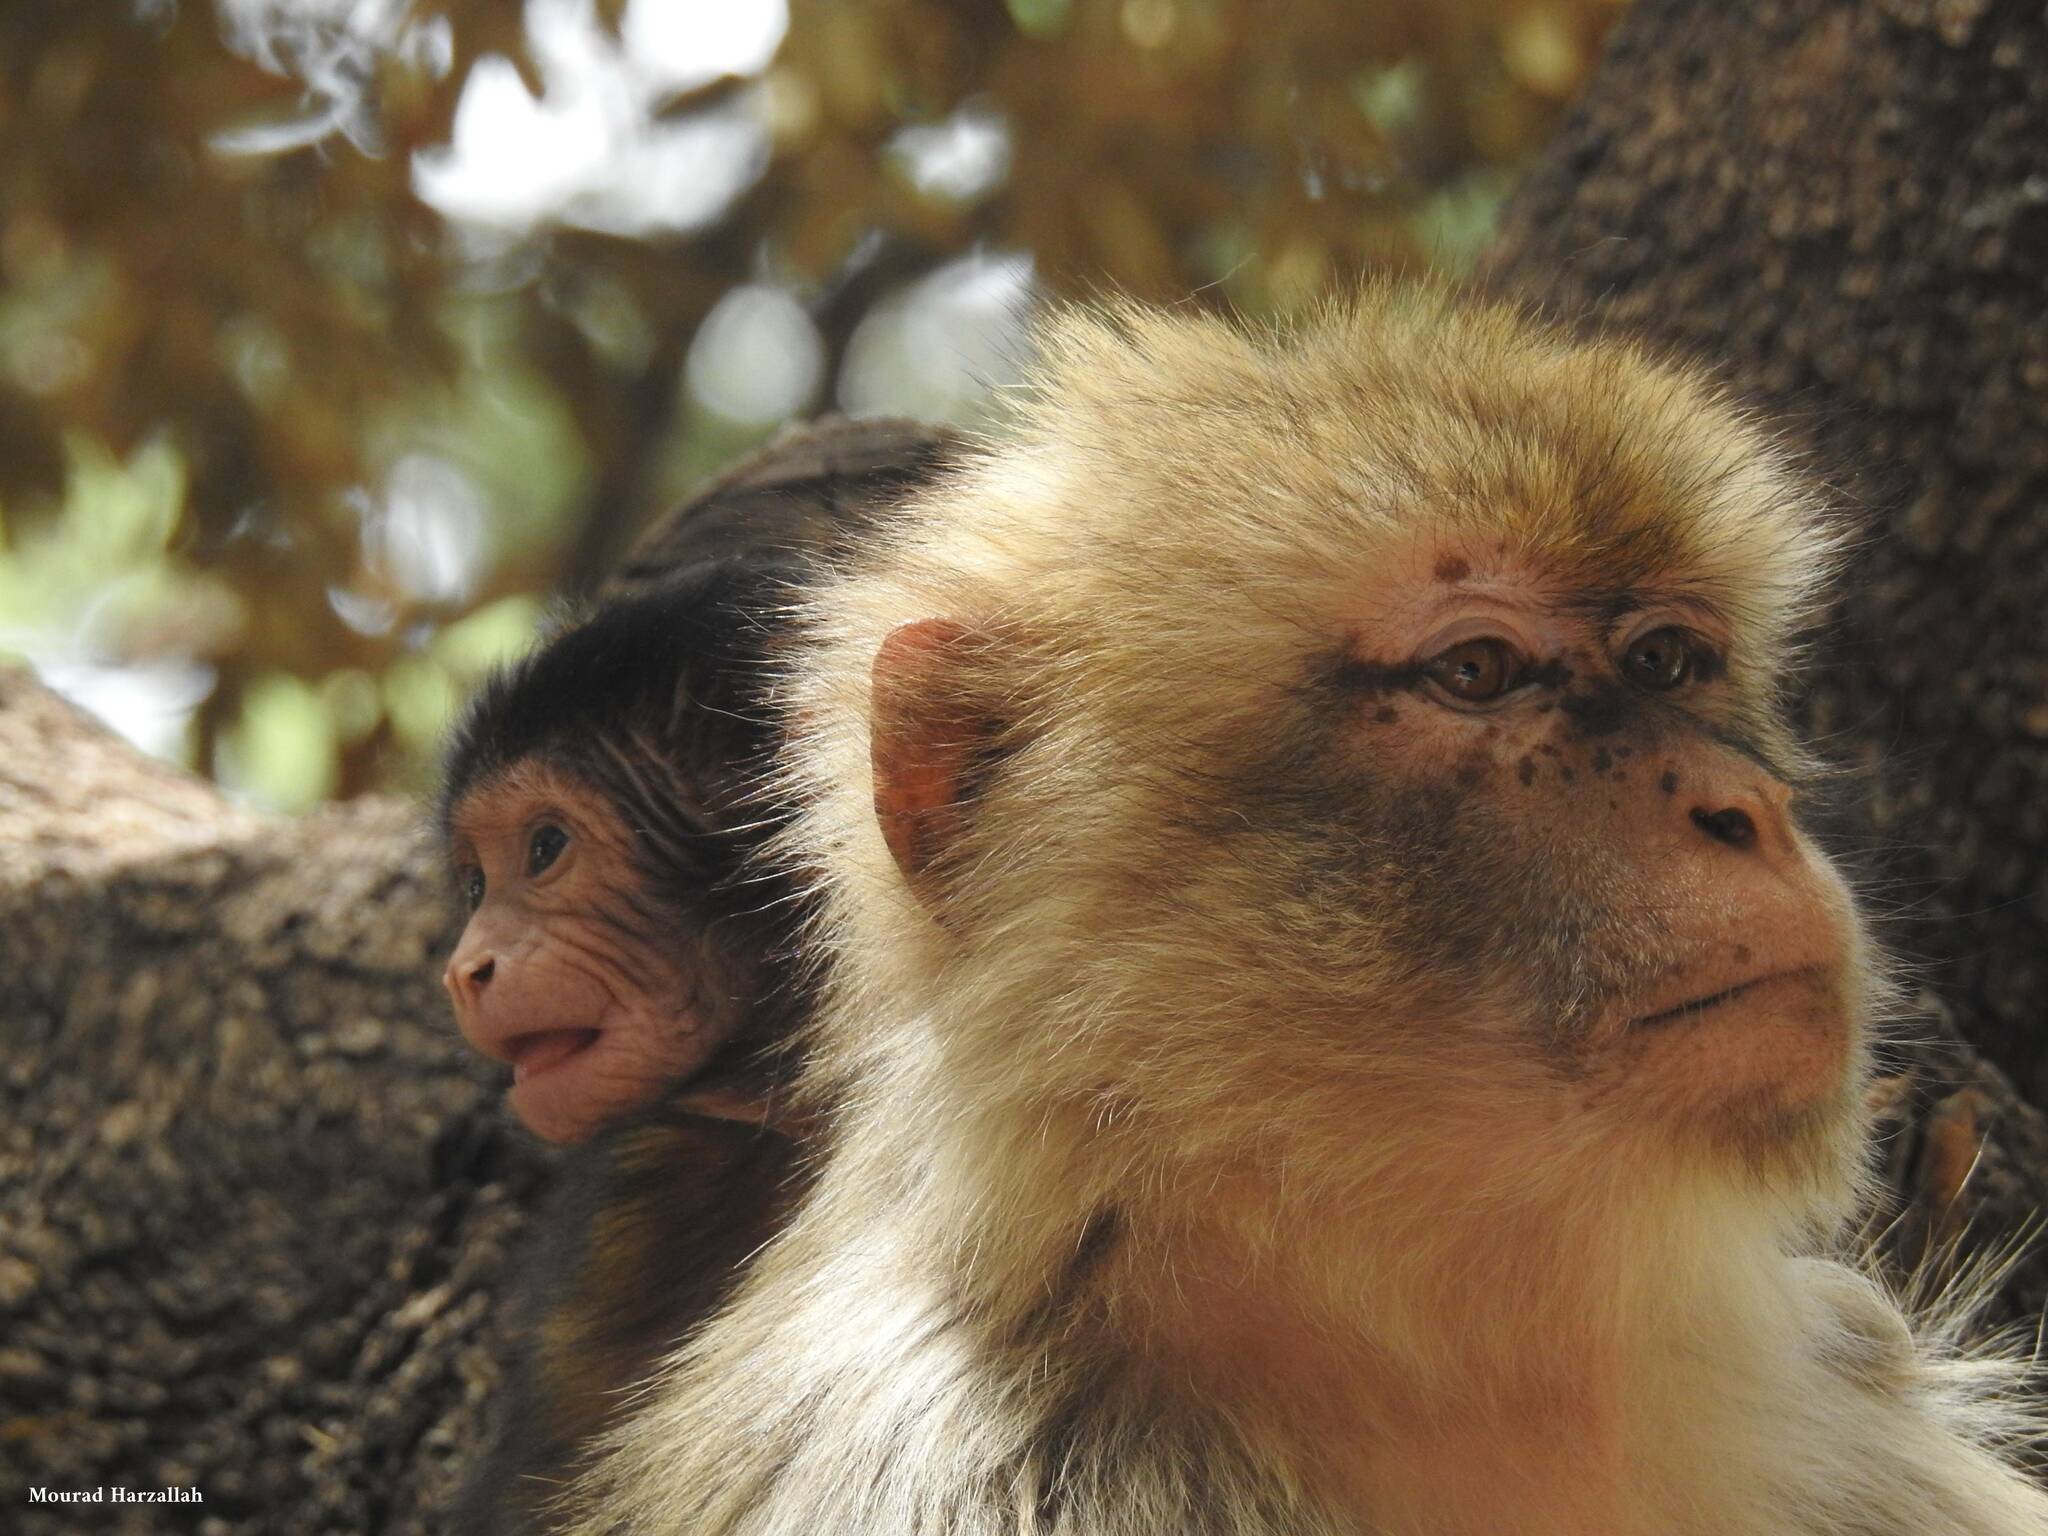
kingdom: Animalia
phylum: Chordata
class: Mammalia
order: Primates
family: Cercopithecidae
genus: Macaca
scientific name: Macaca sylvanus
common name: Barbary macaque
